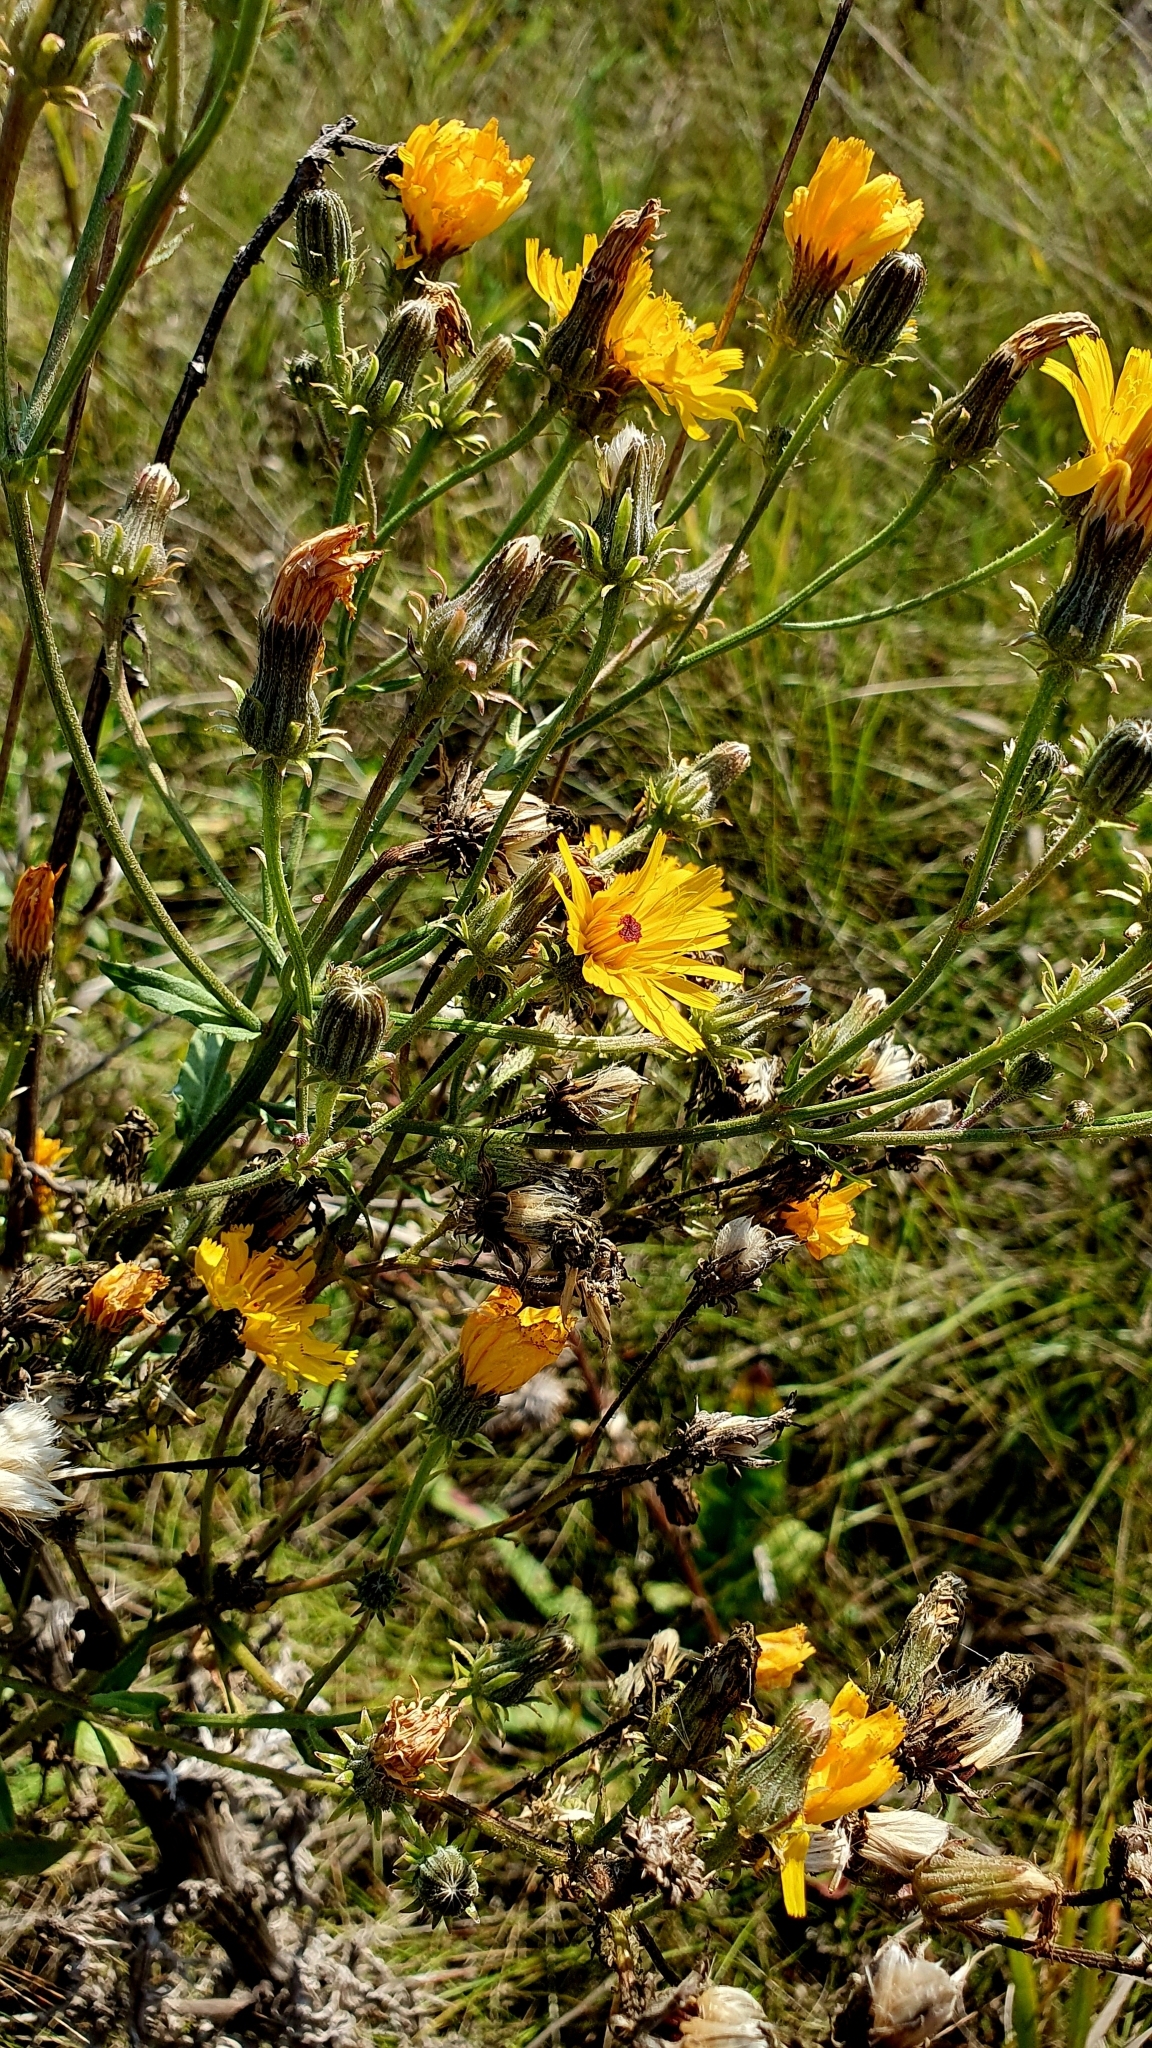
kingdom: Plantae
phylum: Tracheophyta
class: Magnoliopsida
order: Asterales
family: Asteraceae
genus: Picris
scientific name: Picris hieracioides
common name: Hawkweed oxtongue
